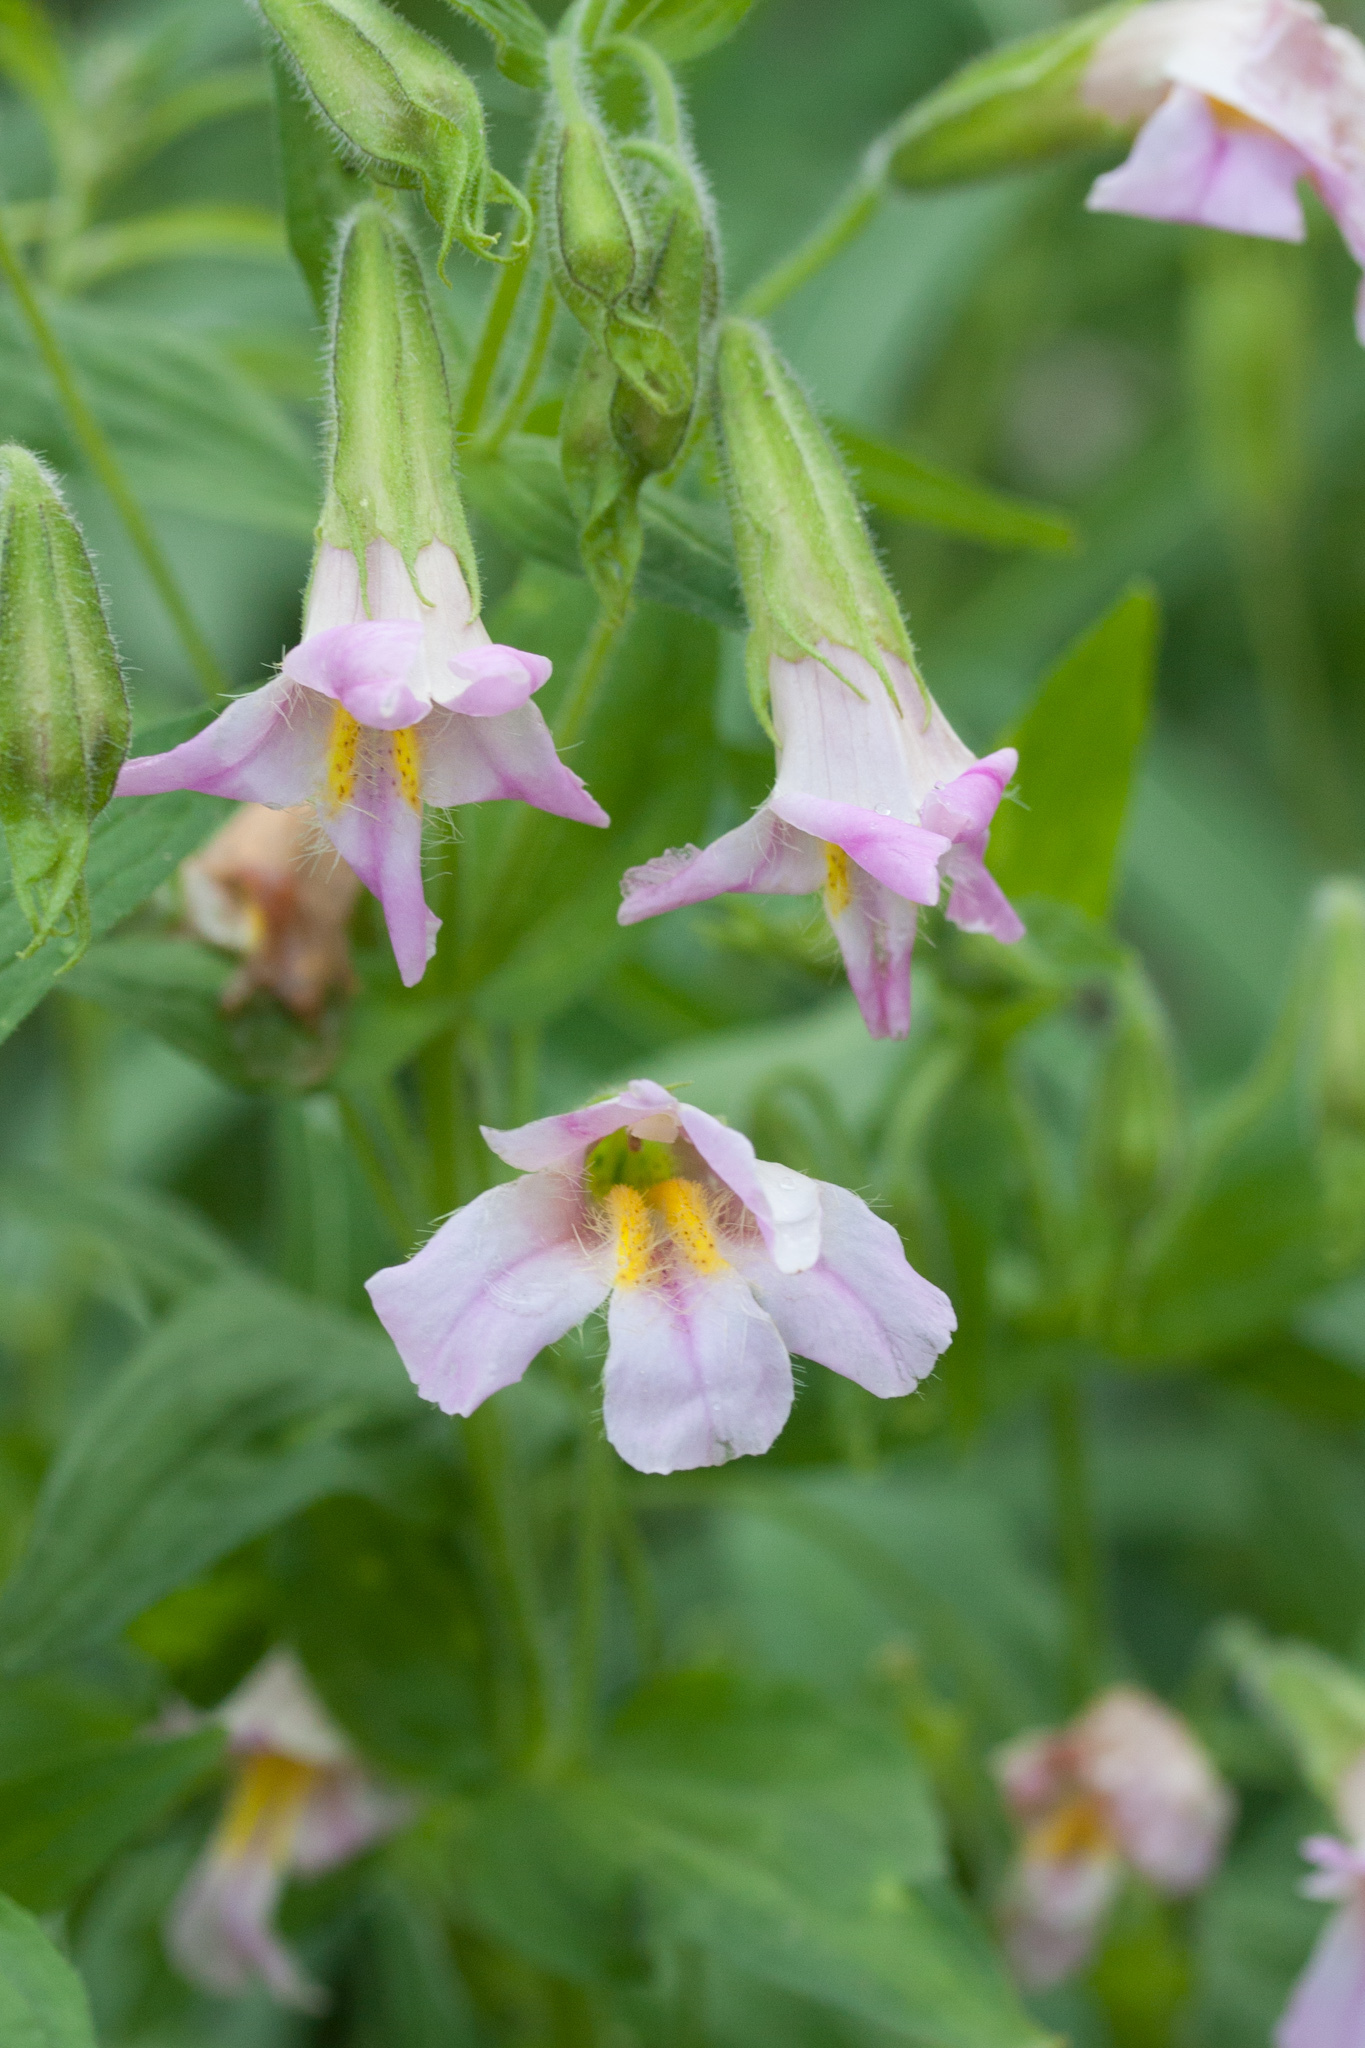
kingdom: Plantae
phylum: Tracheophyta
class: Magnoliopsida
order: Lamiales
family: Phrymaceae
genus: Erythranthe
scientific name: Erythranthe erubescens
